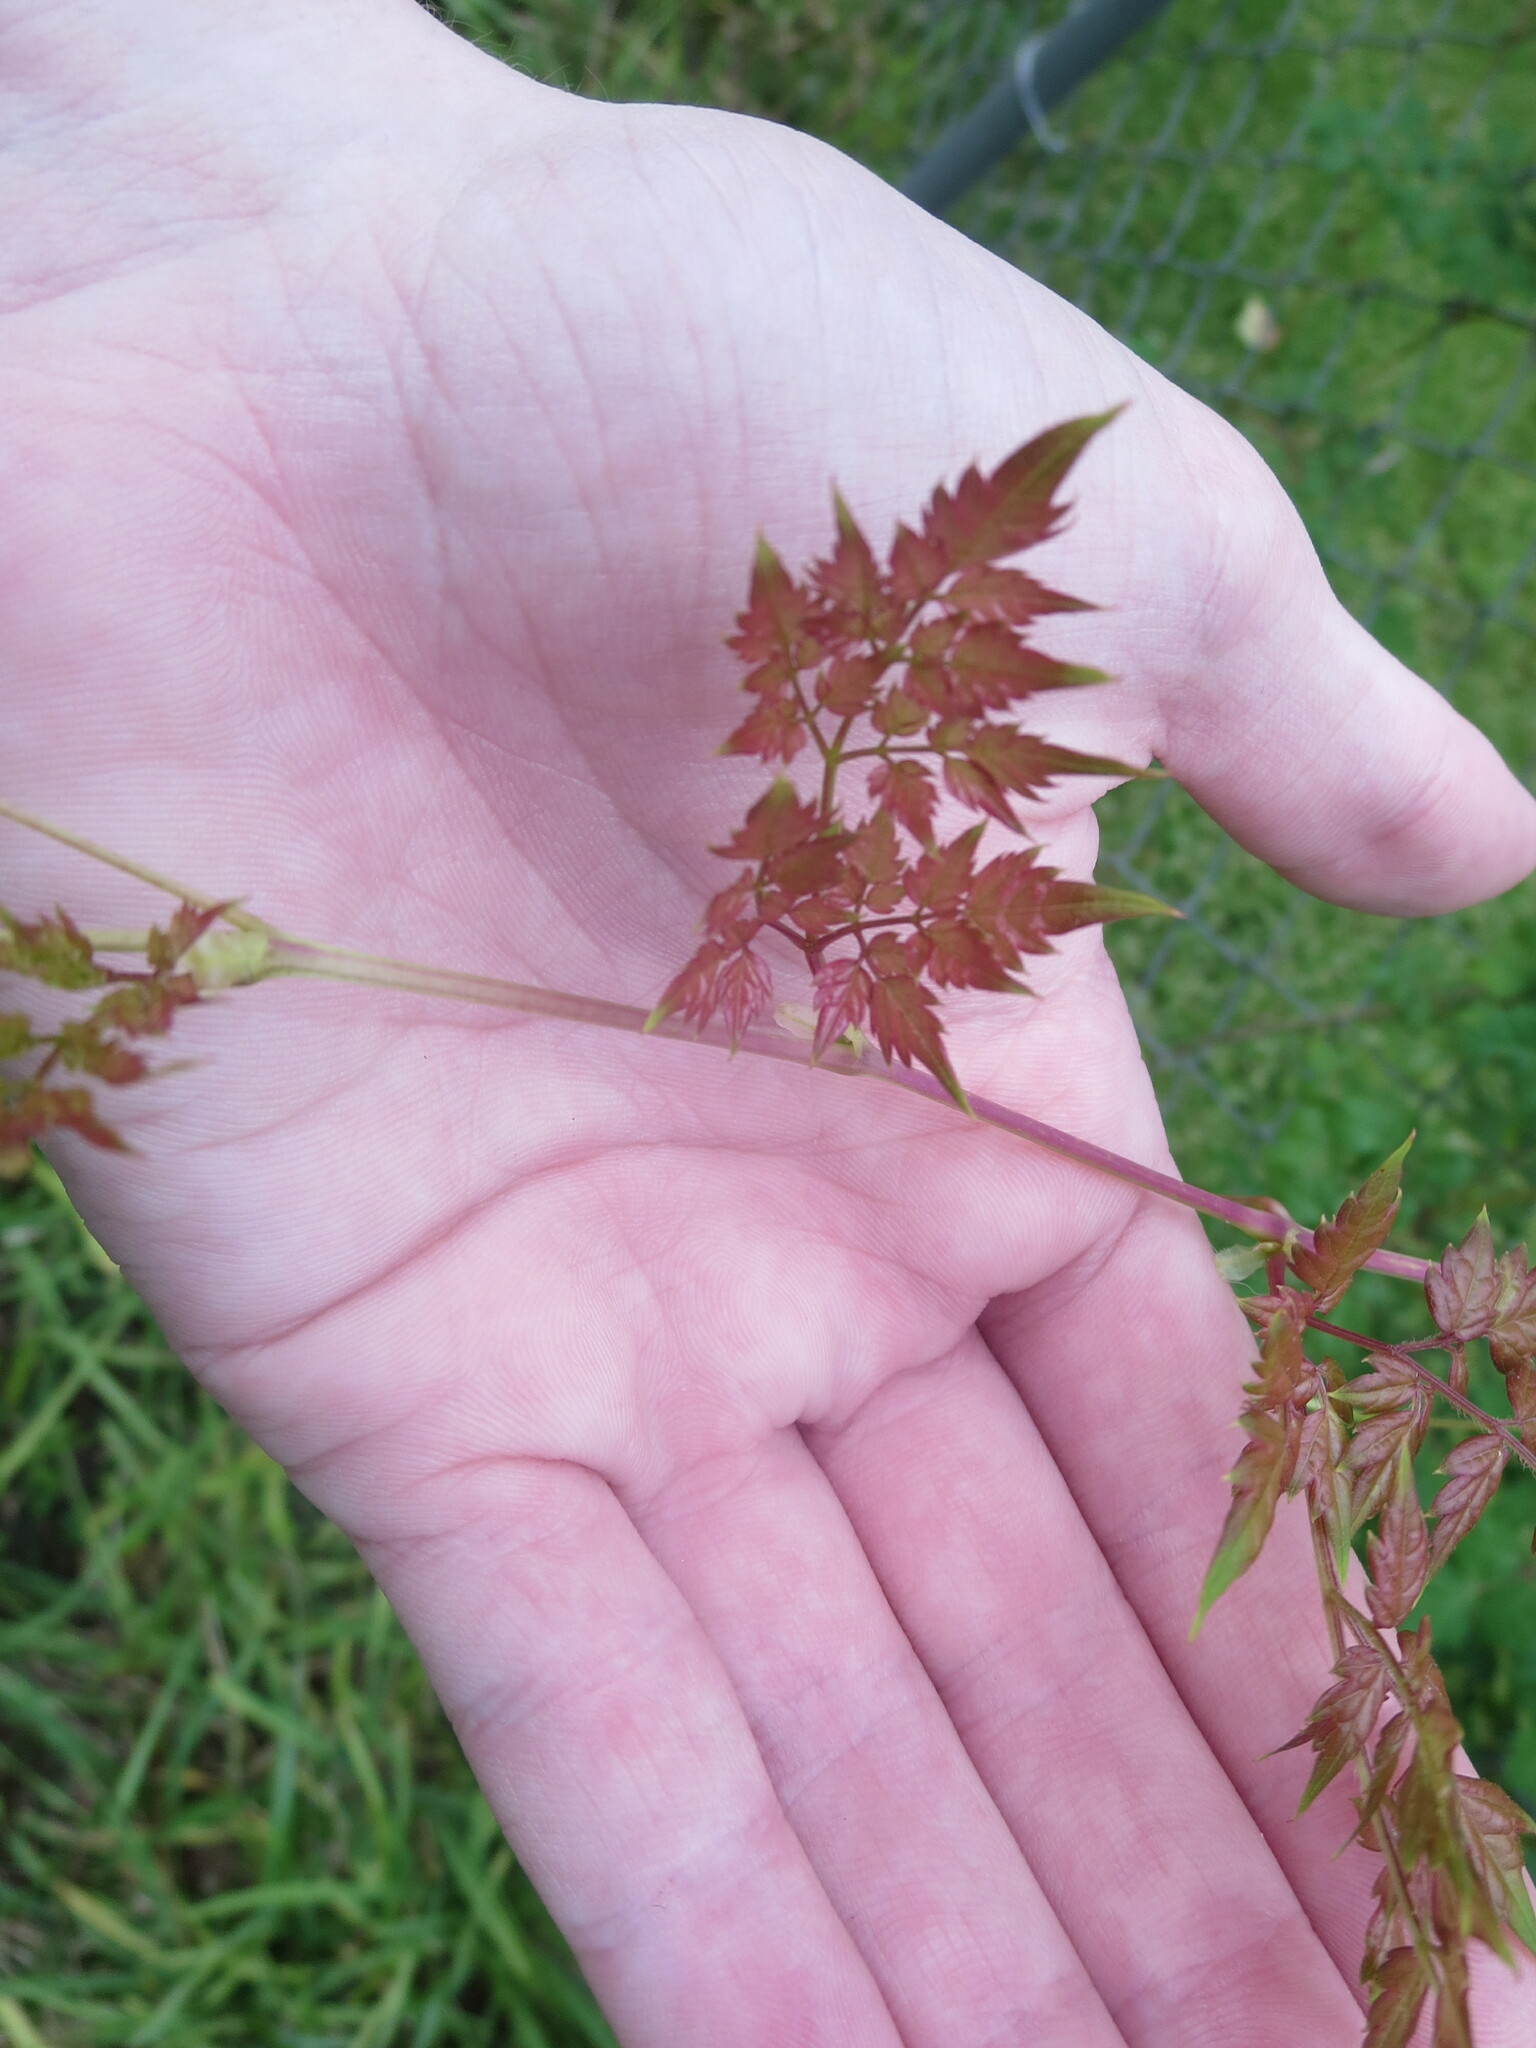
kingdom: Plantae
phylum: Tracheophyta
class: Magnoliopsida
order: Vitales
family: Vitaceae
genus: Nekemias
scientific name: Nekemias arborea
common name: Peppervine
